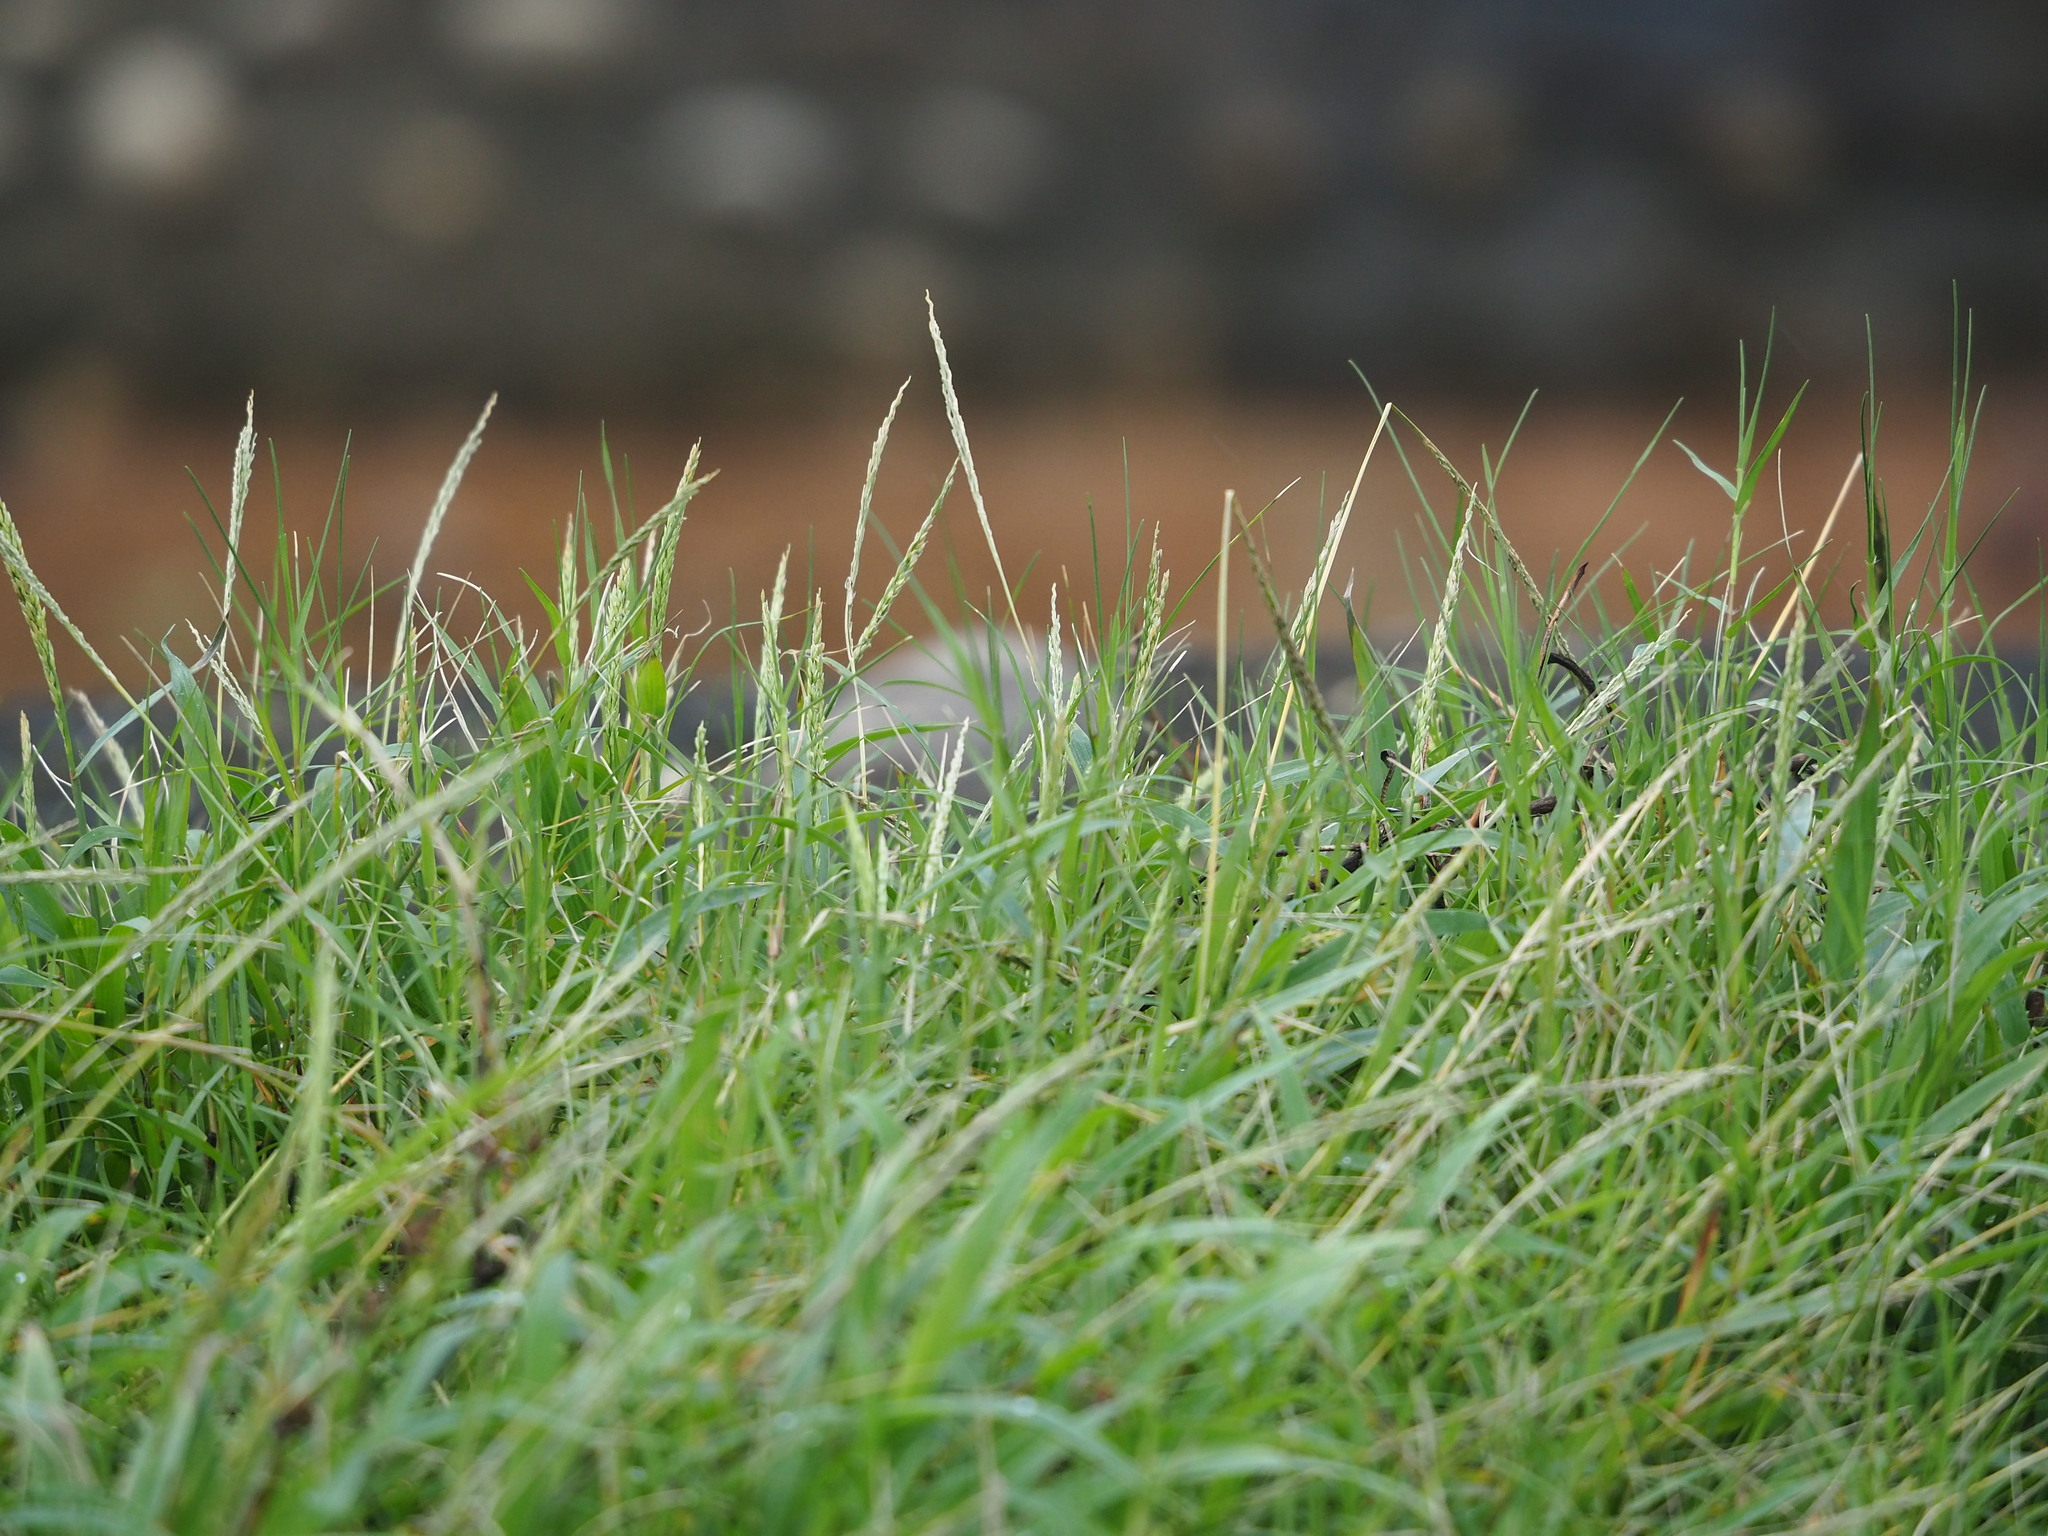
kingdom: Plantae
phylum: Tracheophyta
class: Liliopsida
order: Poales
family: Poaceae
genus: Digitaria
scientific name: Digitaria ciliaris
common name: Tropical finger-grass
